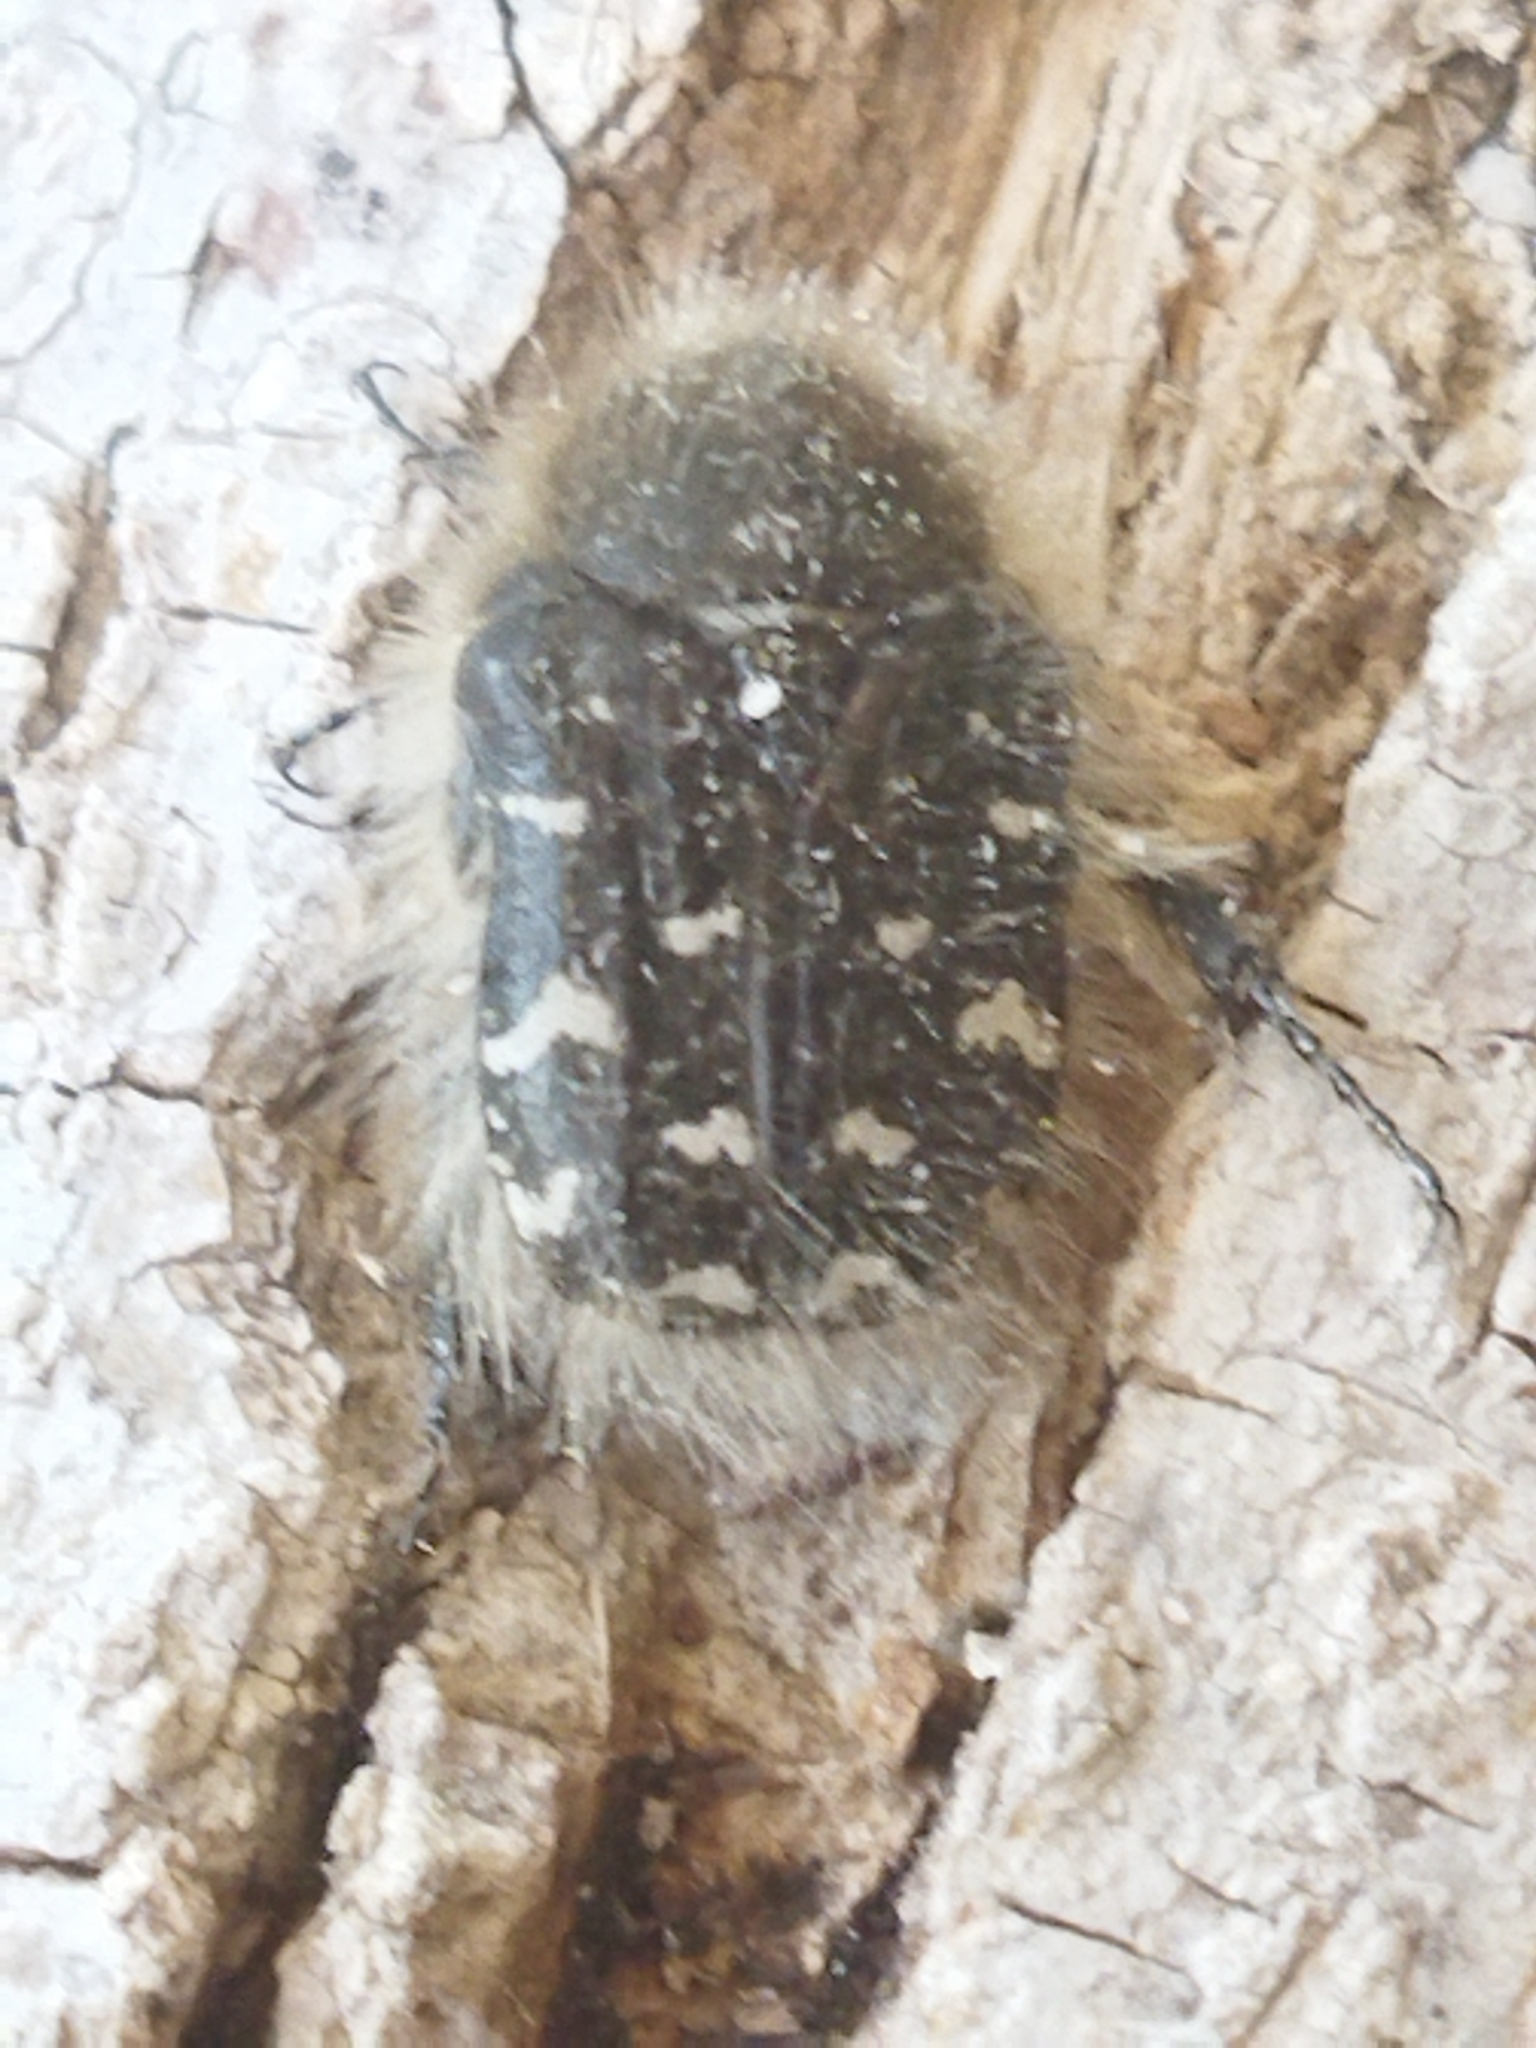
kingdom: Animalia
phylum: Arthropoda
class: Insecta
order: Coleoptera
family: Scarabaeidae
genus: Tropinota
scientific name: Tropinota hirta
